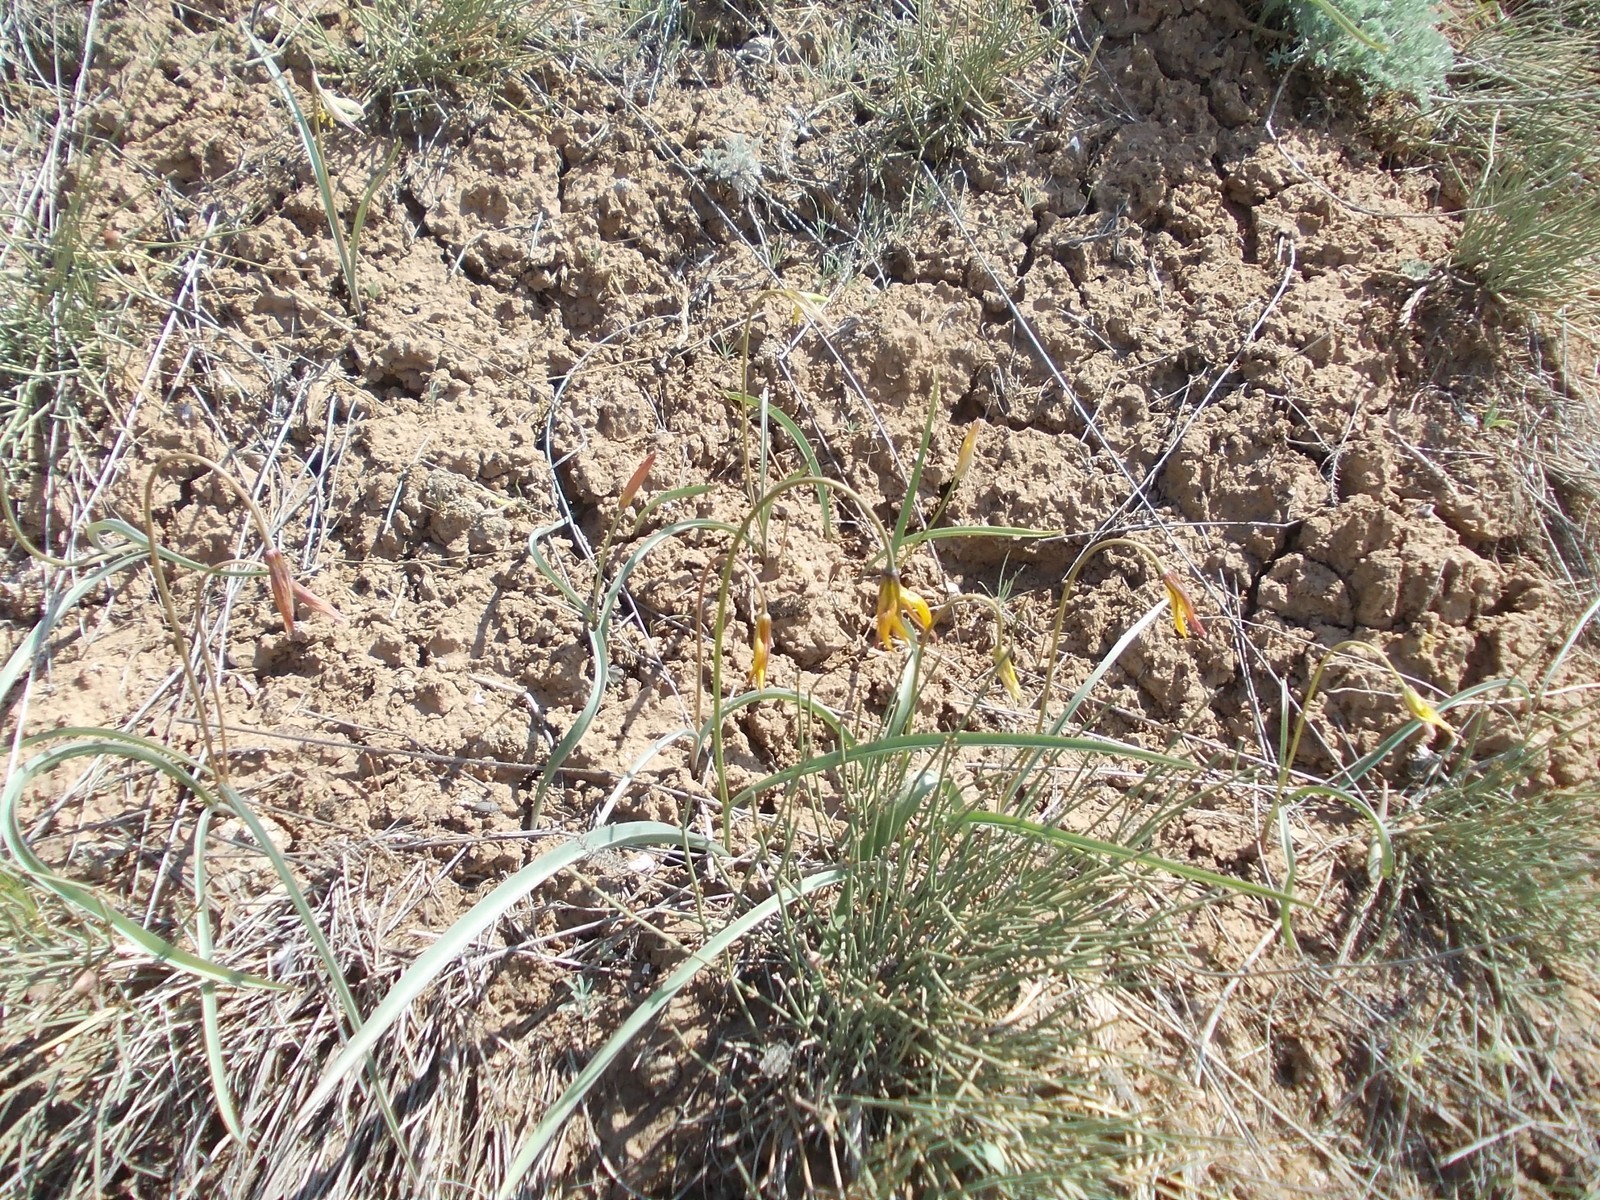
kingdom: Plantae
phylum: Tracheophyta
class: Liliopsida
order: Liliales
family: Liliaceae
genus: Tulipa
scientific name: Tulipa sylvestris
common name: Wild tulip
